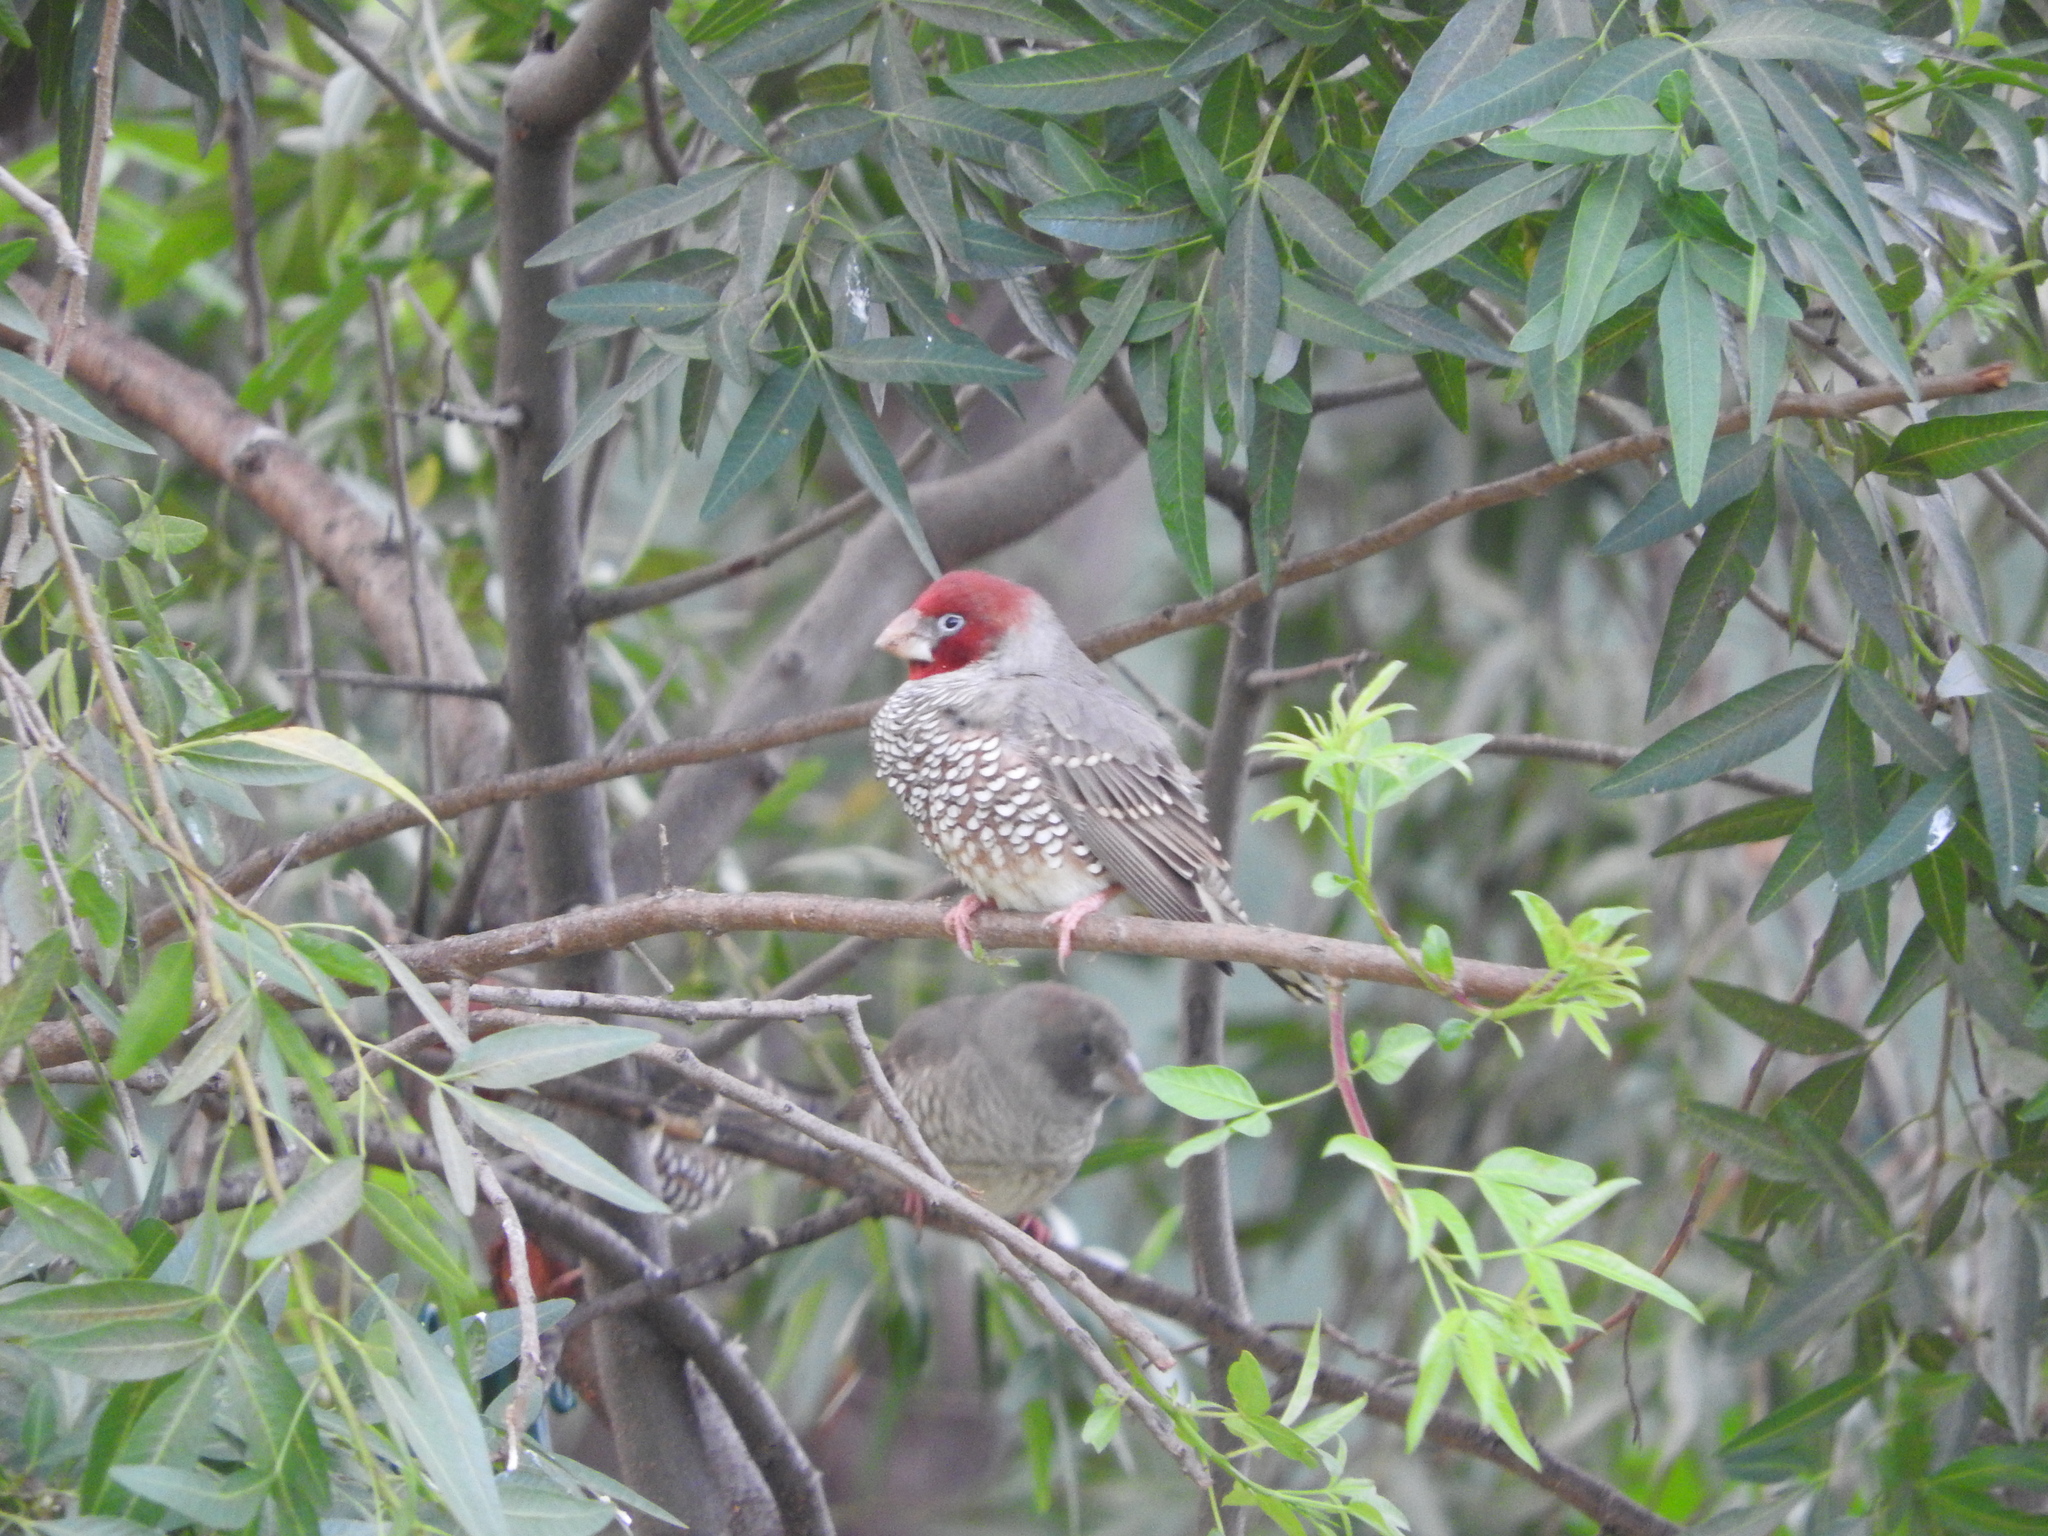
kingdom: Animalia
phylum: Chordata
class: Aves
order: Passeriformes
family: Estrildidae
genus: Amadina
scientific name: Amadina erythrocephala
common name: Red-headed finch
